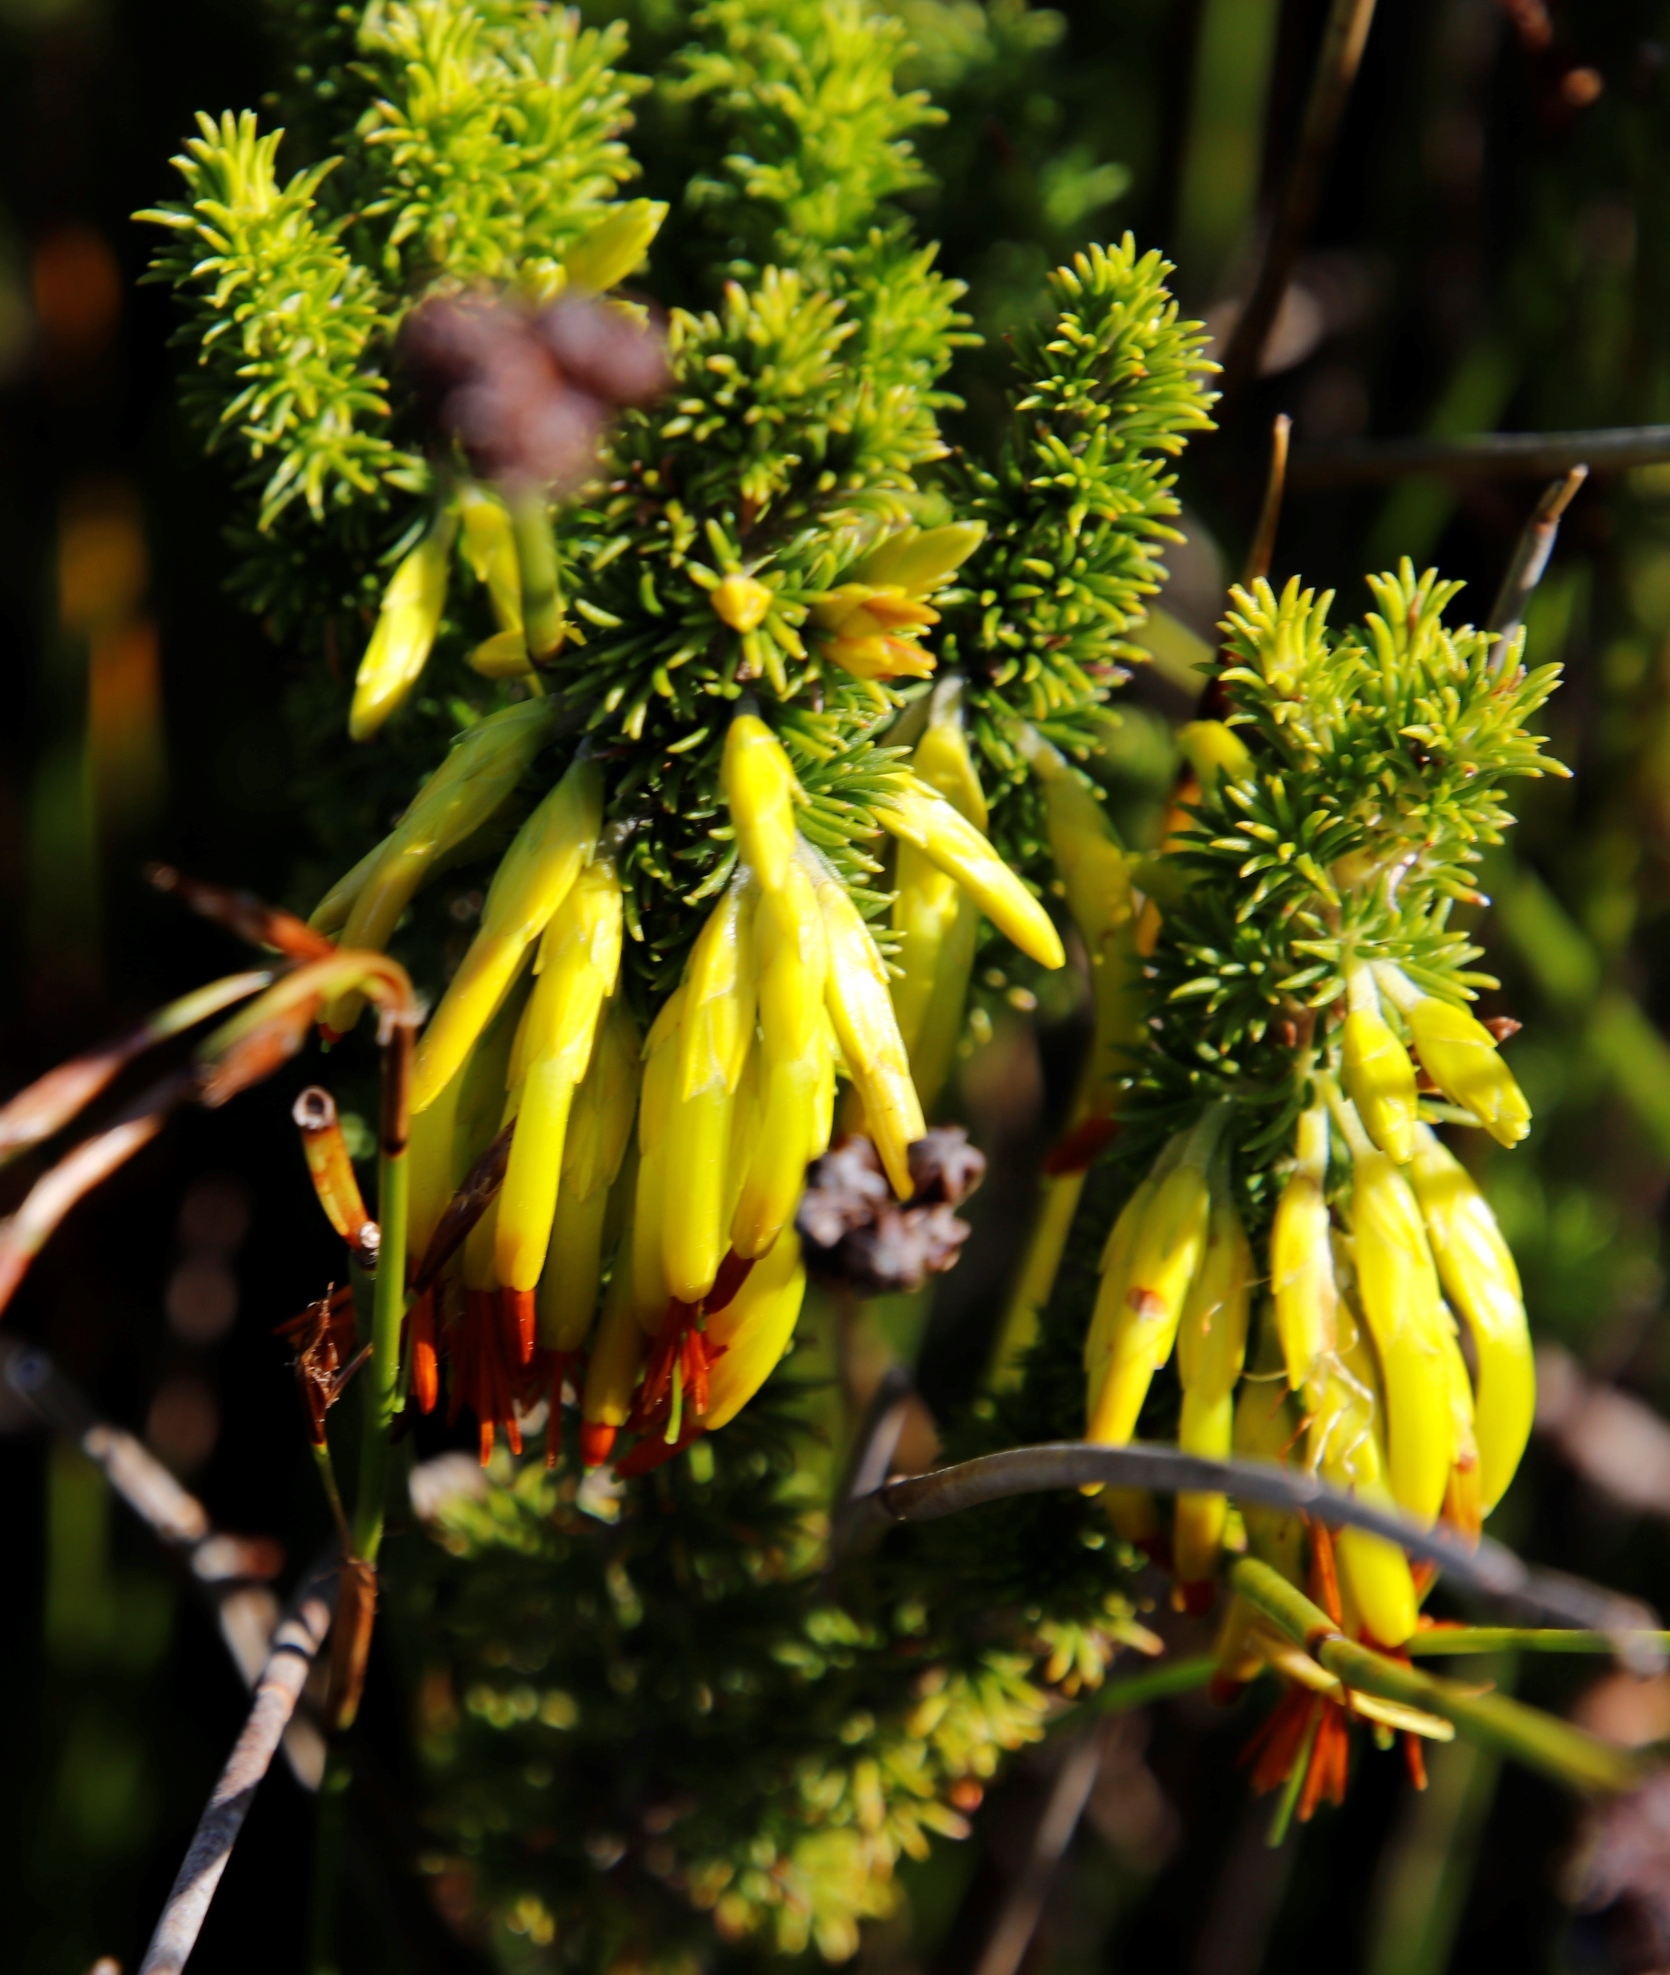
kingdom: Plantae
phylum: Tracheophyta
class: Magnoliopsida
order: Ericales
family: Ericaceae
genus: Erica
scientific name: Erica coccinea
